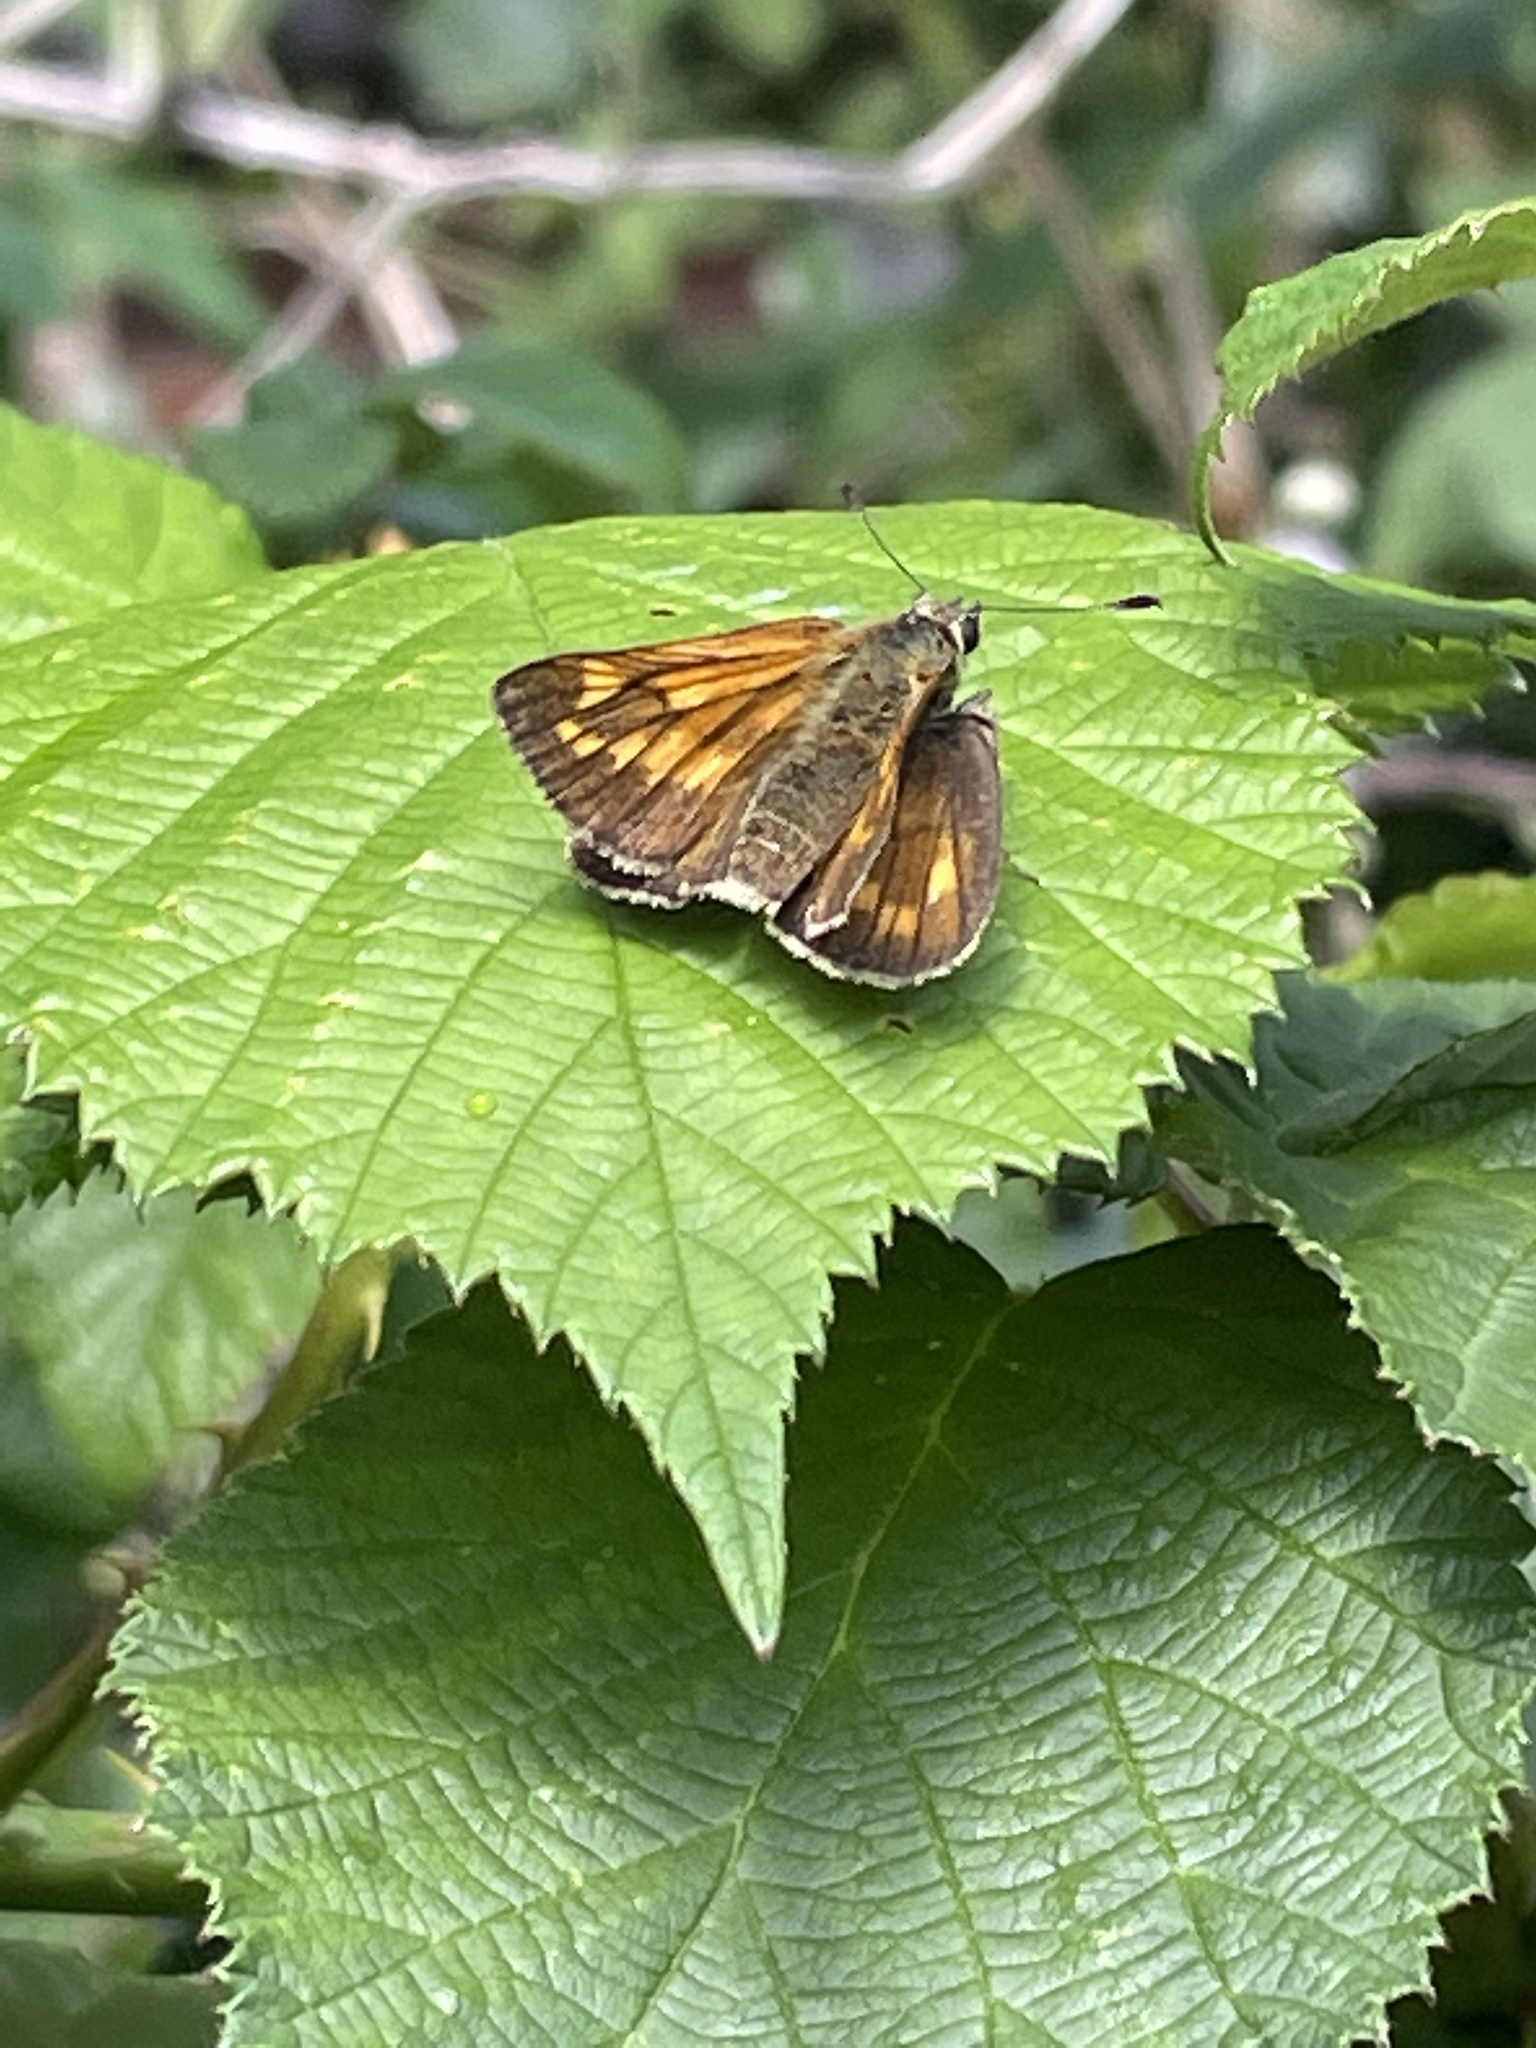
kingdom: Animalia
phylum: Arthropoda
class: Insecta
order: Lepidoptera
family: Hesperiidae
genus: Ochlodes
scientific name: Ochlodes venata
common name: Large skipper
